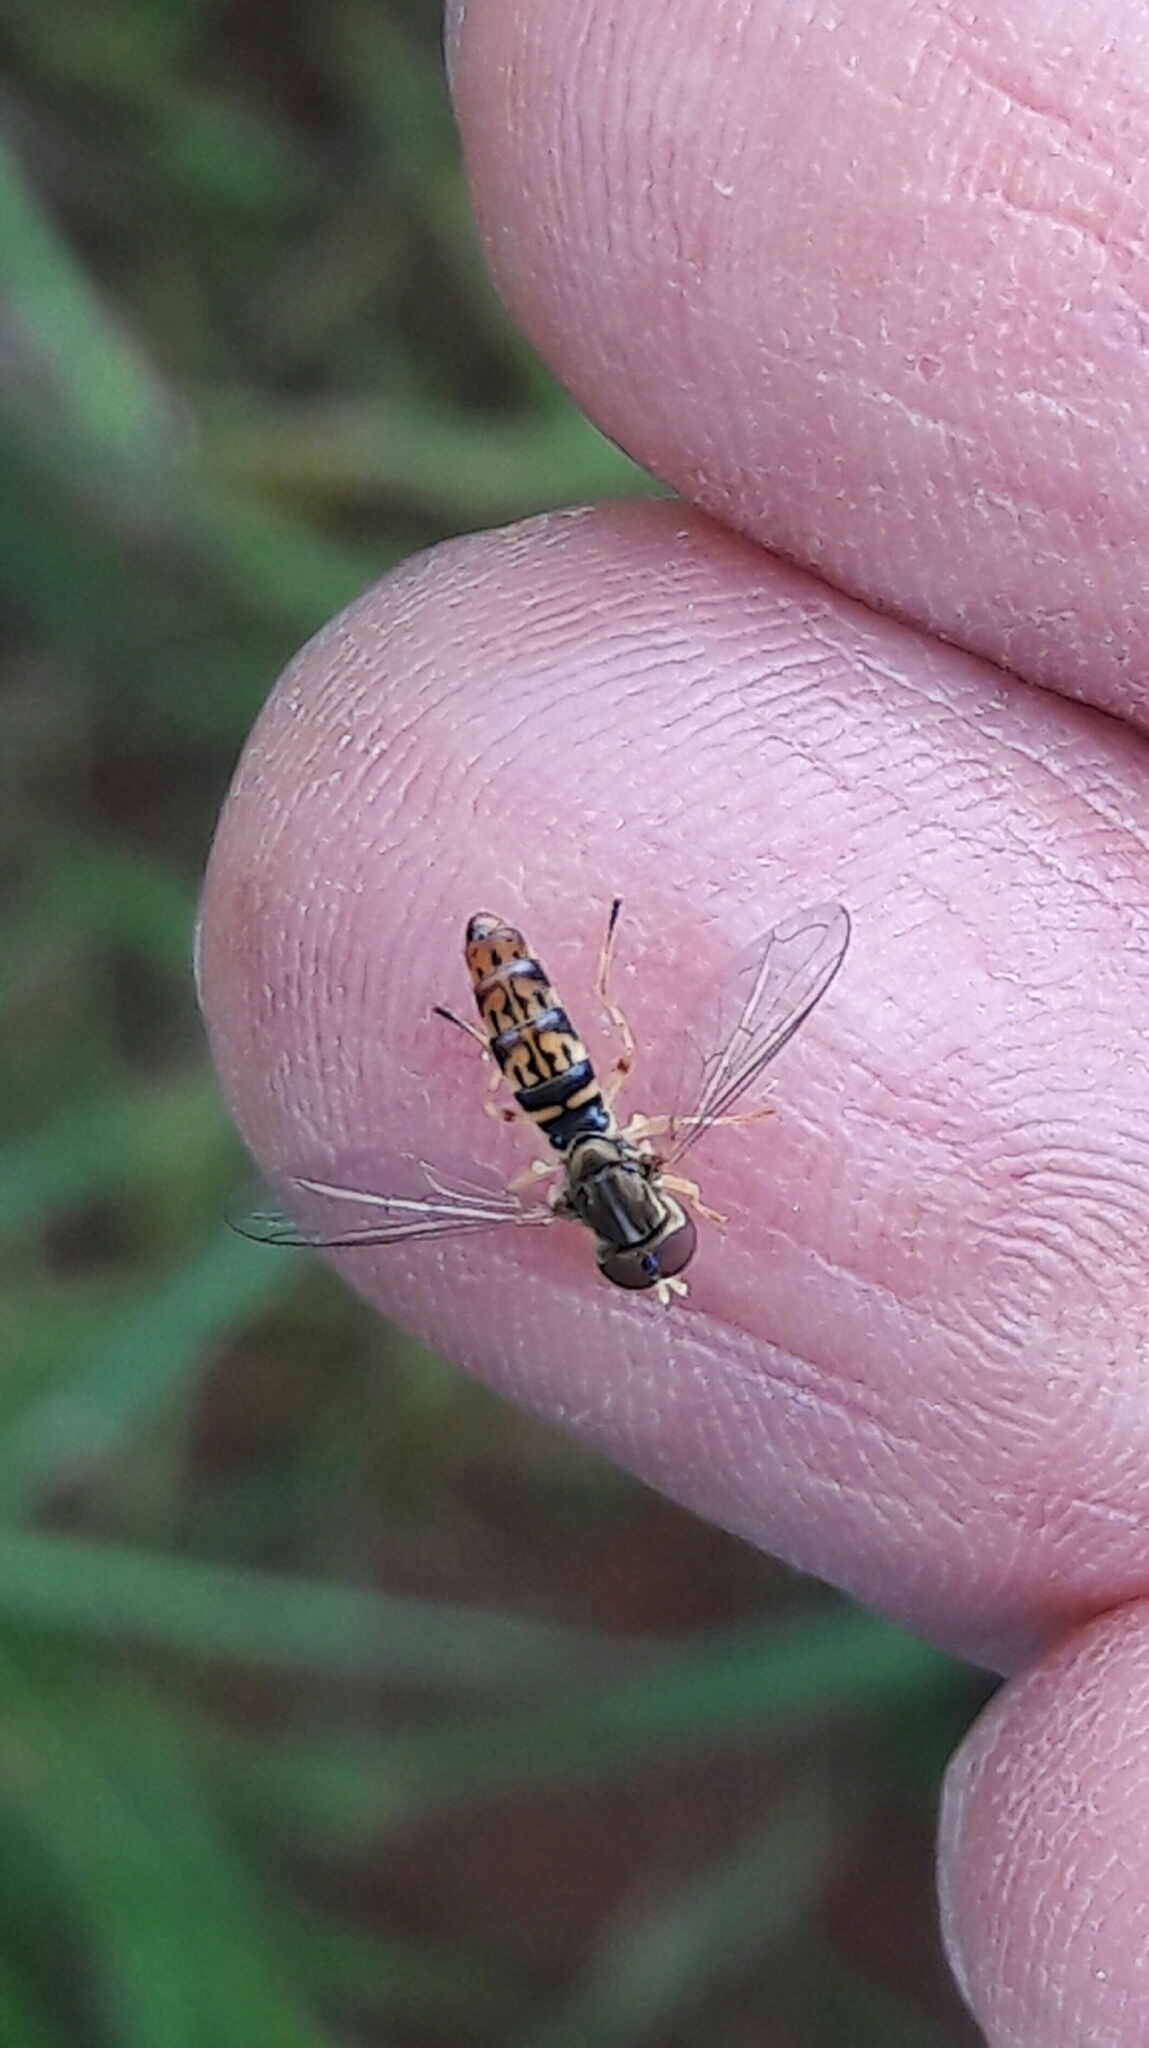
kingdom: Animalia
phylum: Arthropoda
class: Insecta
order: Diptera
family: Syrphidae
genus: Toxomerus
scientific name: Toxomerus
